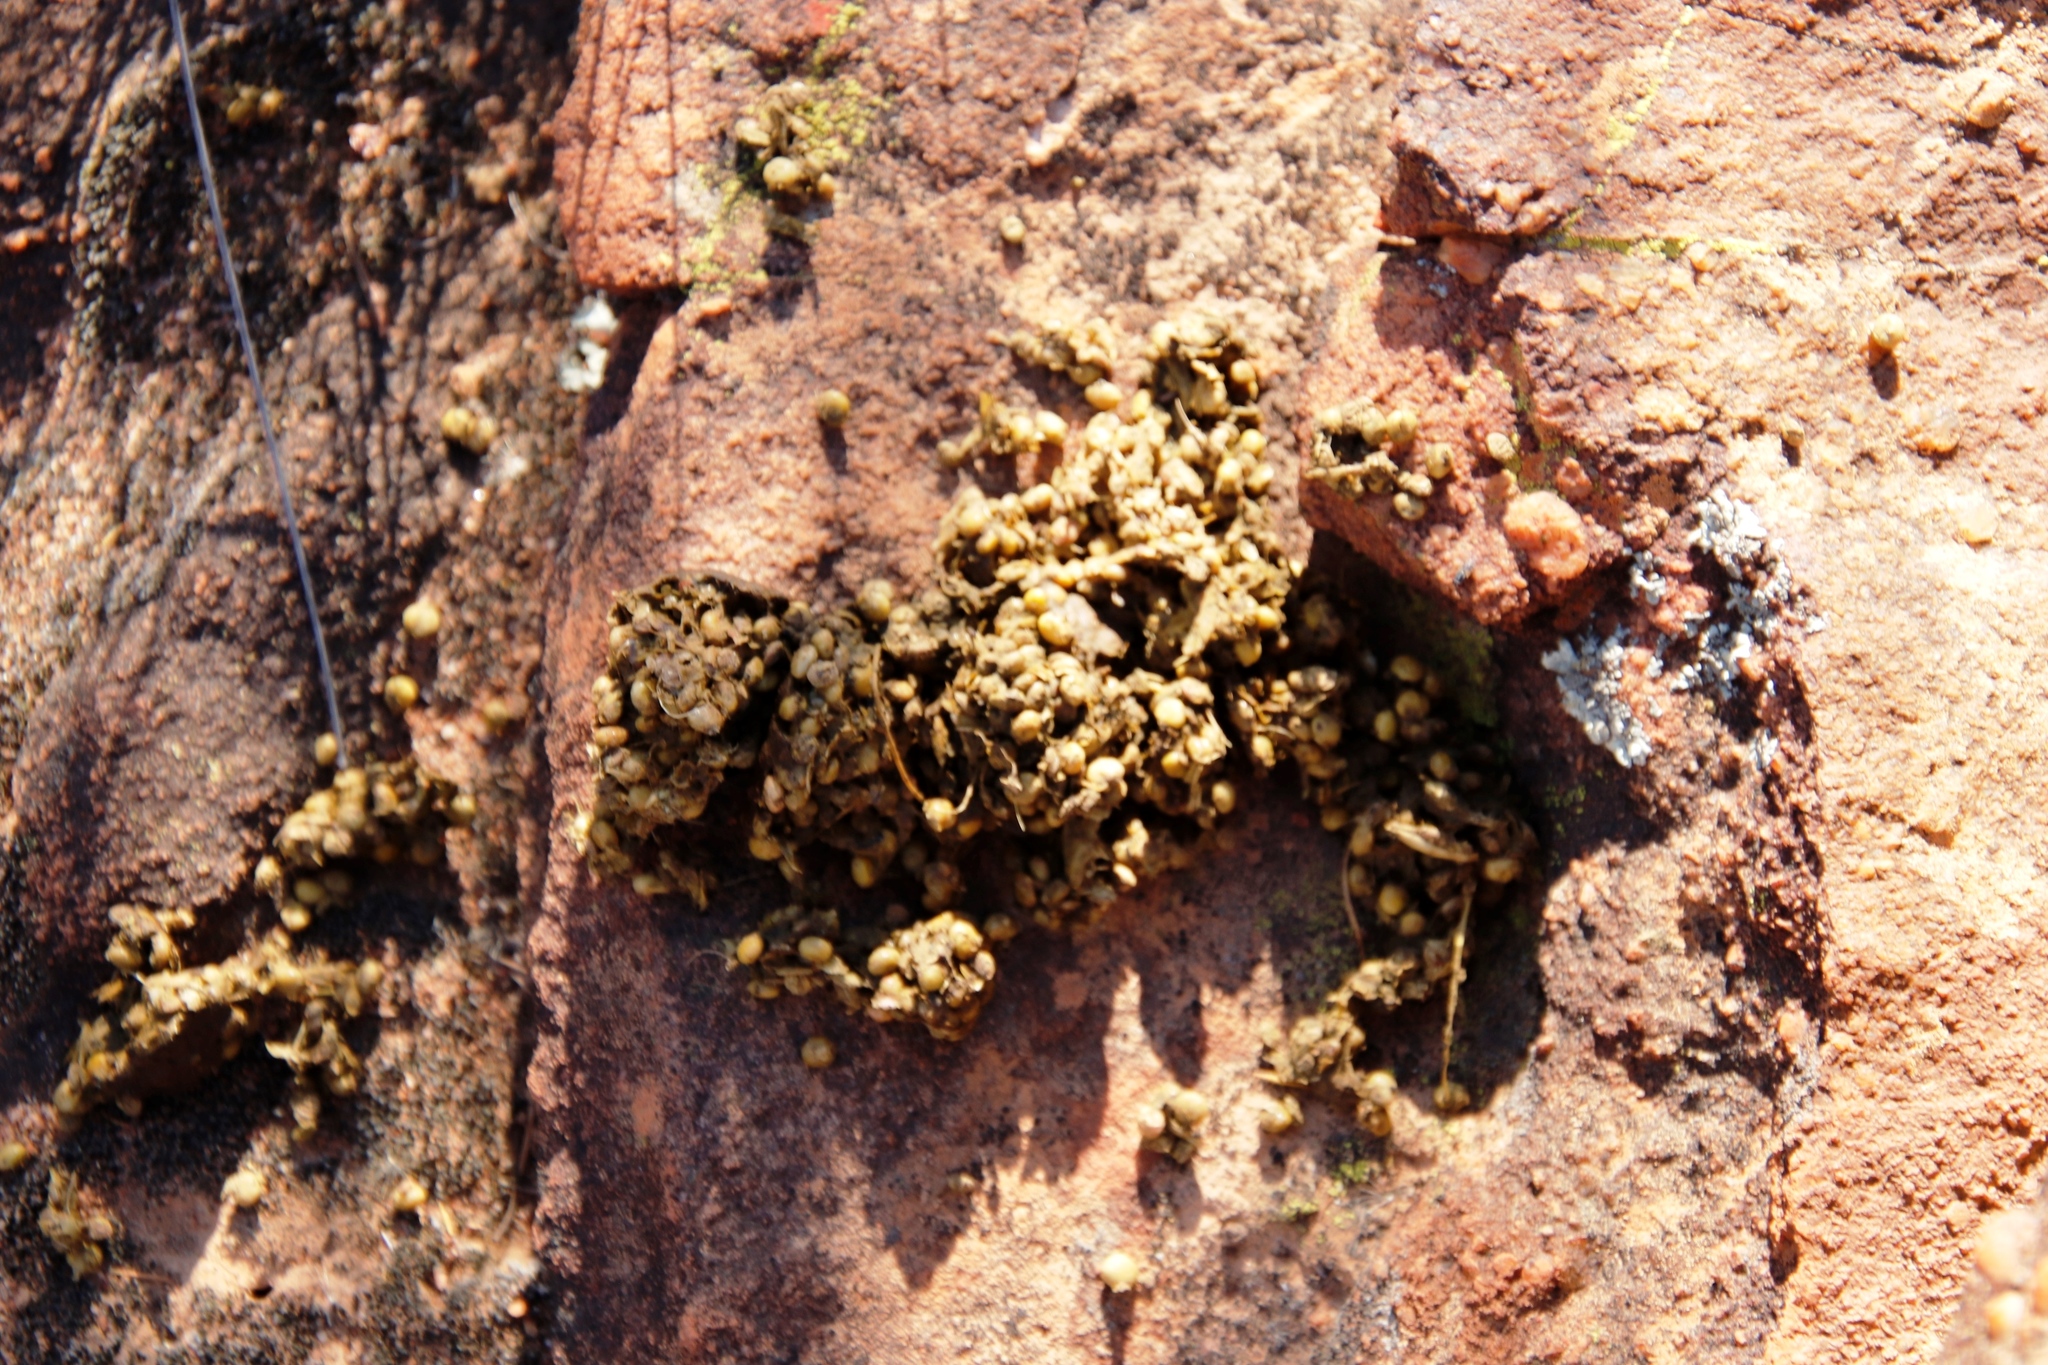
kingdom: Animalia
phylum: Chordata
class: Mammalia
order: Primates
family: Cercopithecidae
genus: Papio
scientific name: Papio ursinus
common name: Chacma baboon
